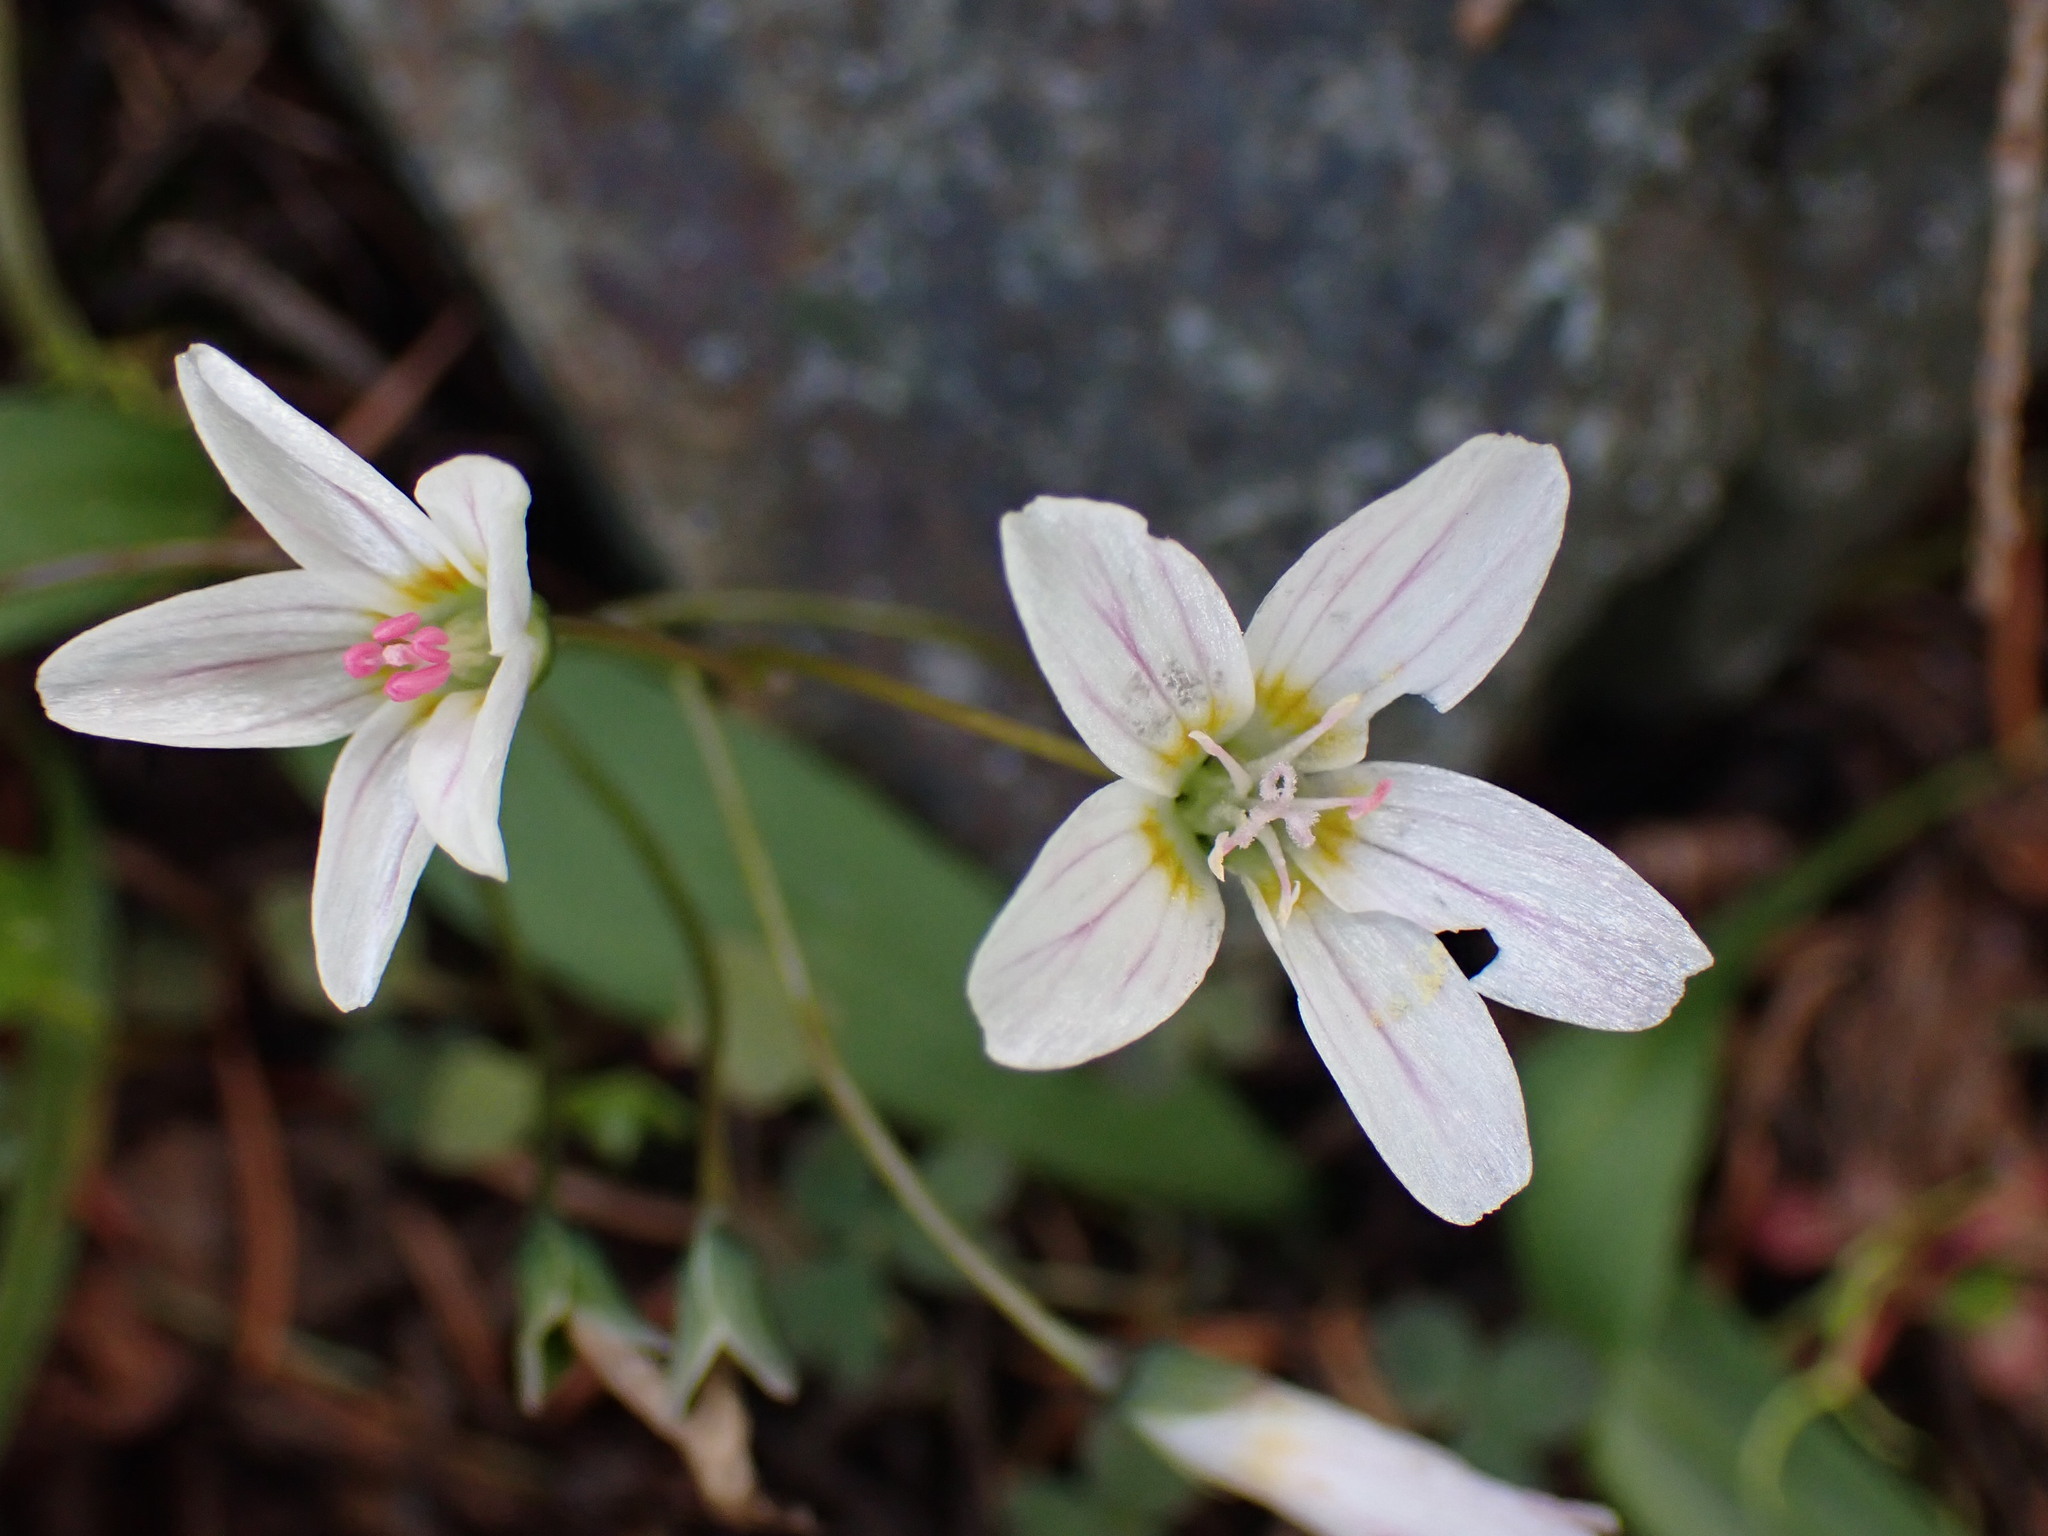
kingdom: Plantae
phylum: Tracheophyta
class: Magnoliopsida
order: Caryophyllales
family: Montiaceae
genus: Claytonia
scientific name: Claytonia lanceolata
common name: Western spring-beauty
